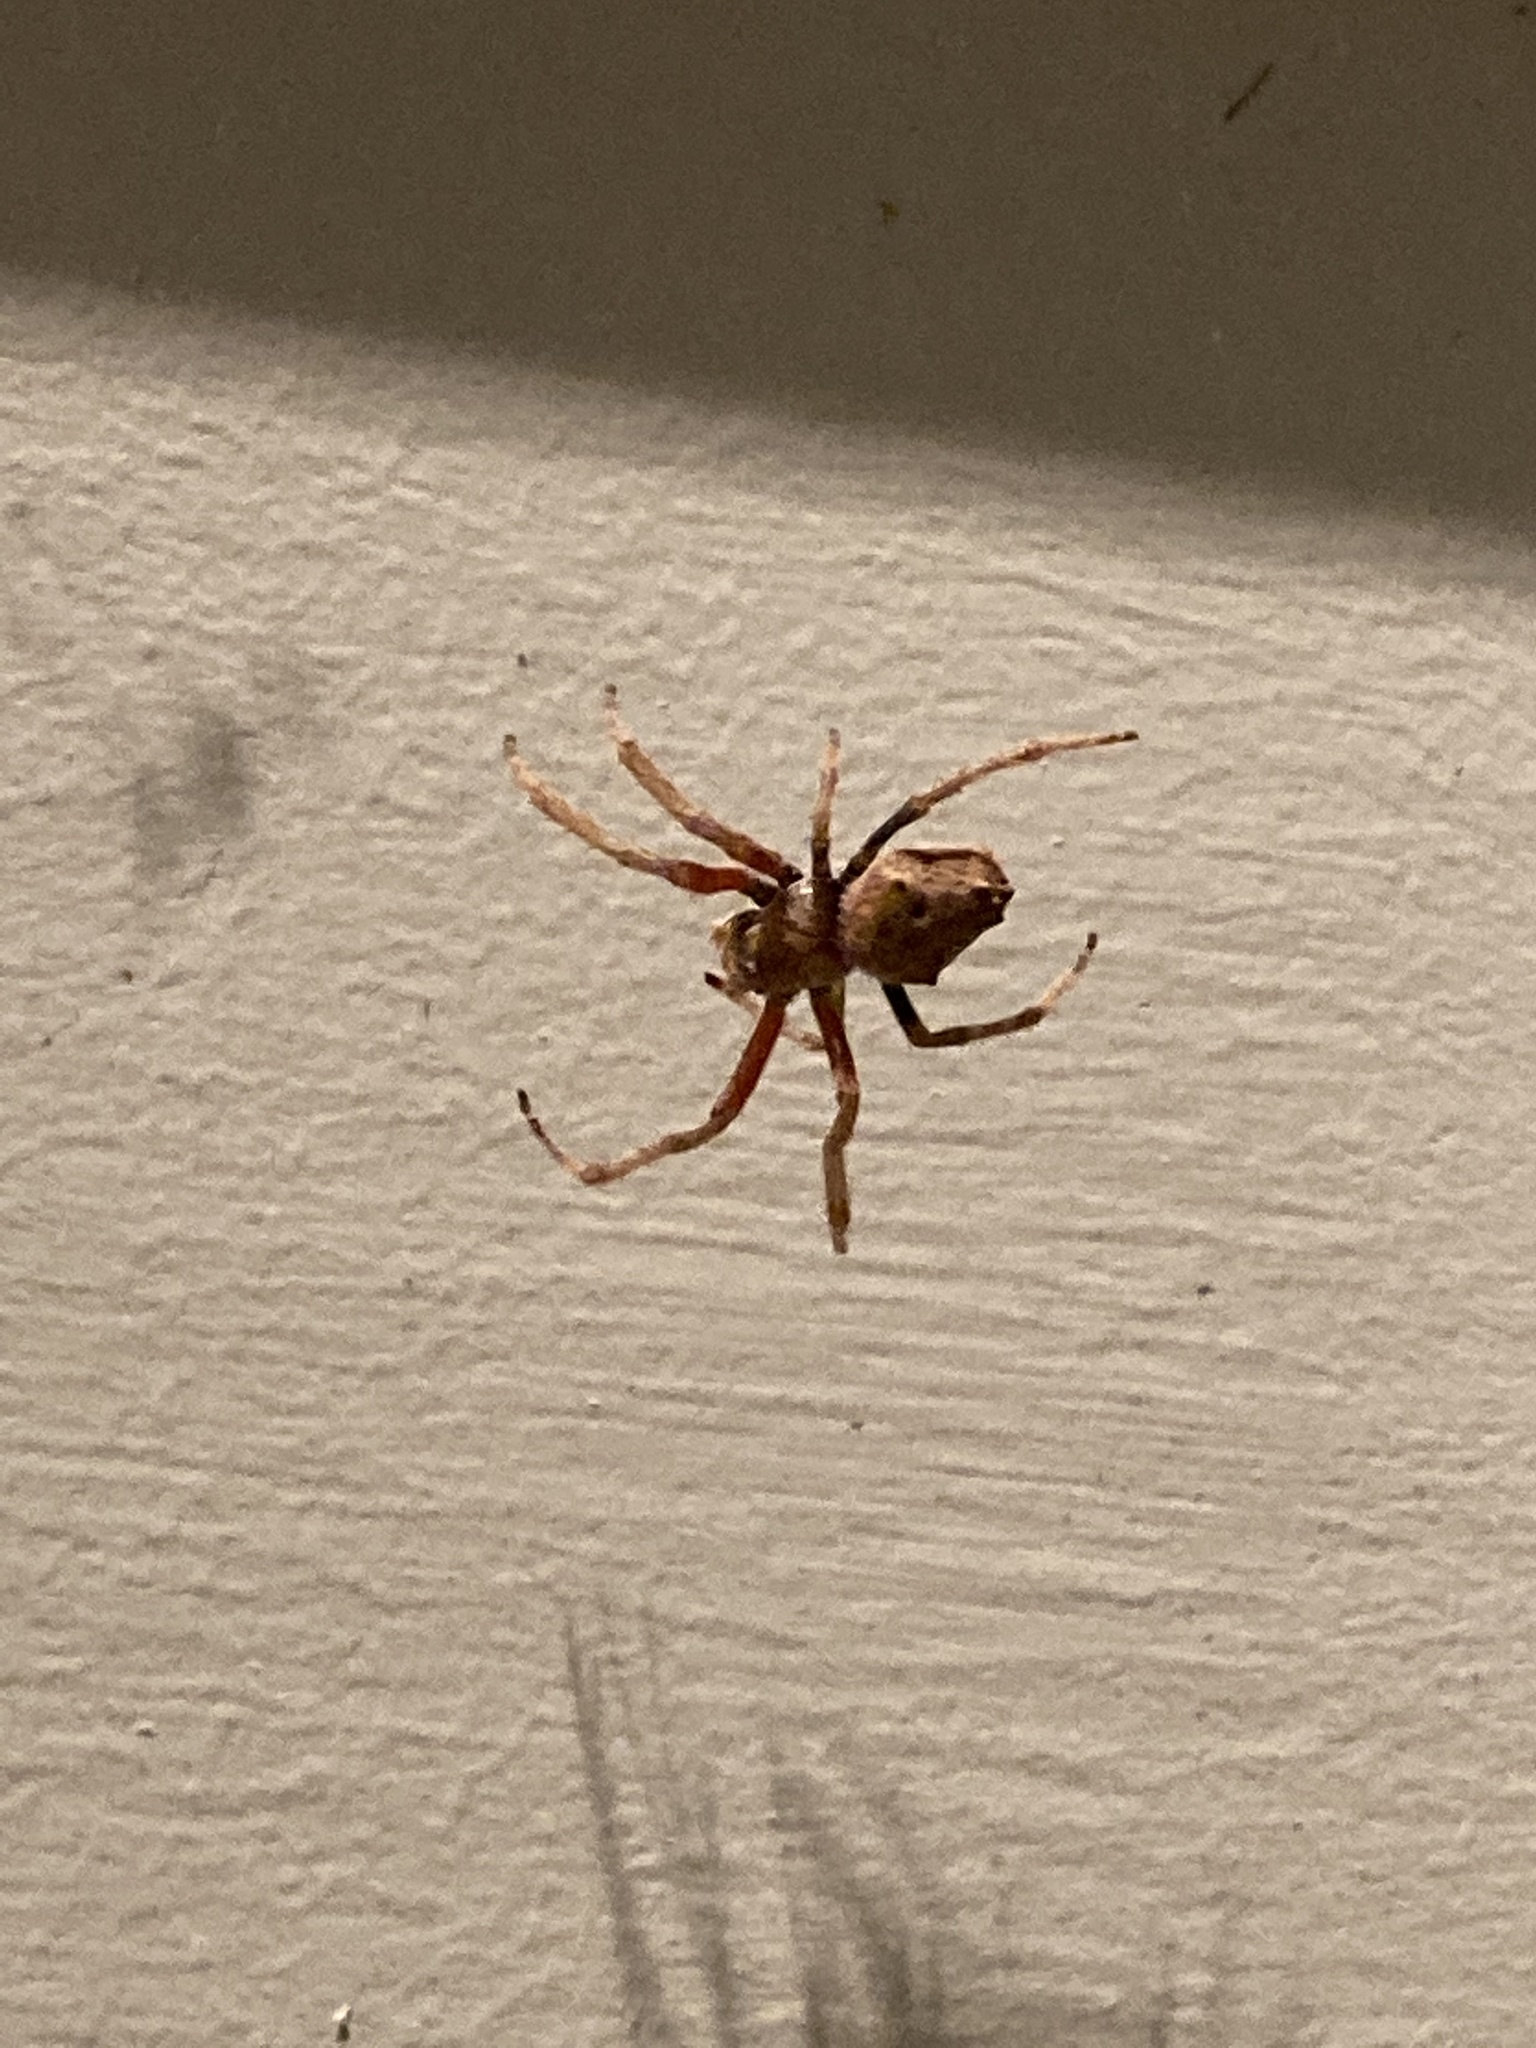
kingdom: Animalia
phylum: Arthropoda
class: Arachnida
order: Araneae
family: Araneidae
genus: Eriophora
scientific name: Eriophora pustulosa
